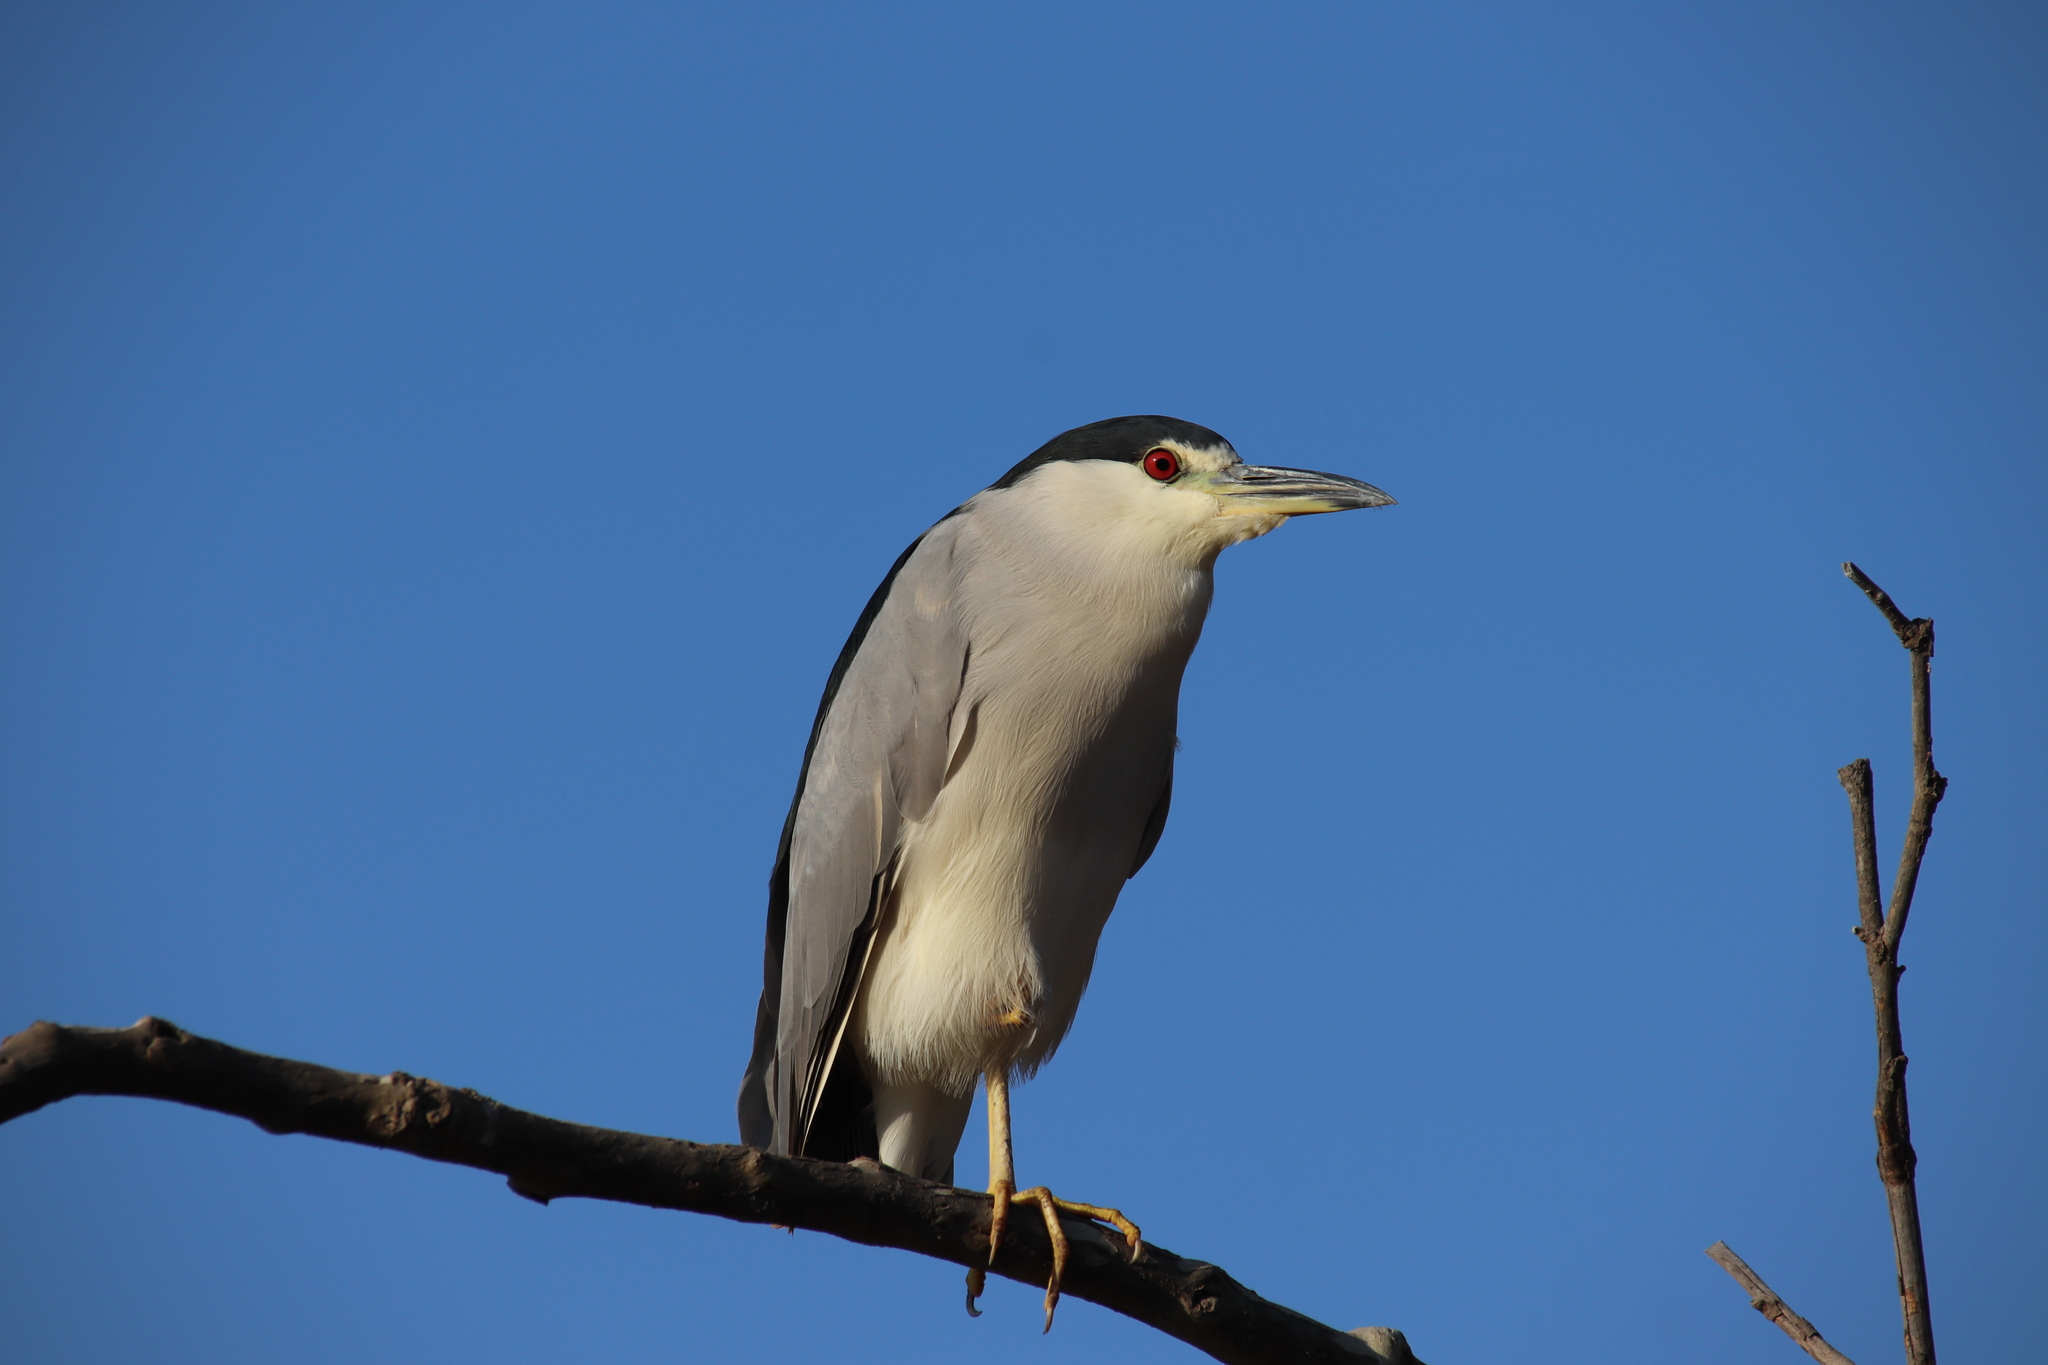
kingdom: Animalia
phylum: Chordata
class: Aves
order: Pelecaniformes
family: Ardeidae
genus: Nycticorax
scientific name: Nycticorax nycticorax
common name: Black-crowned night heron
